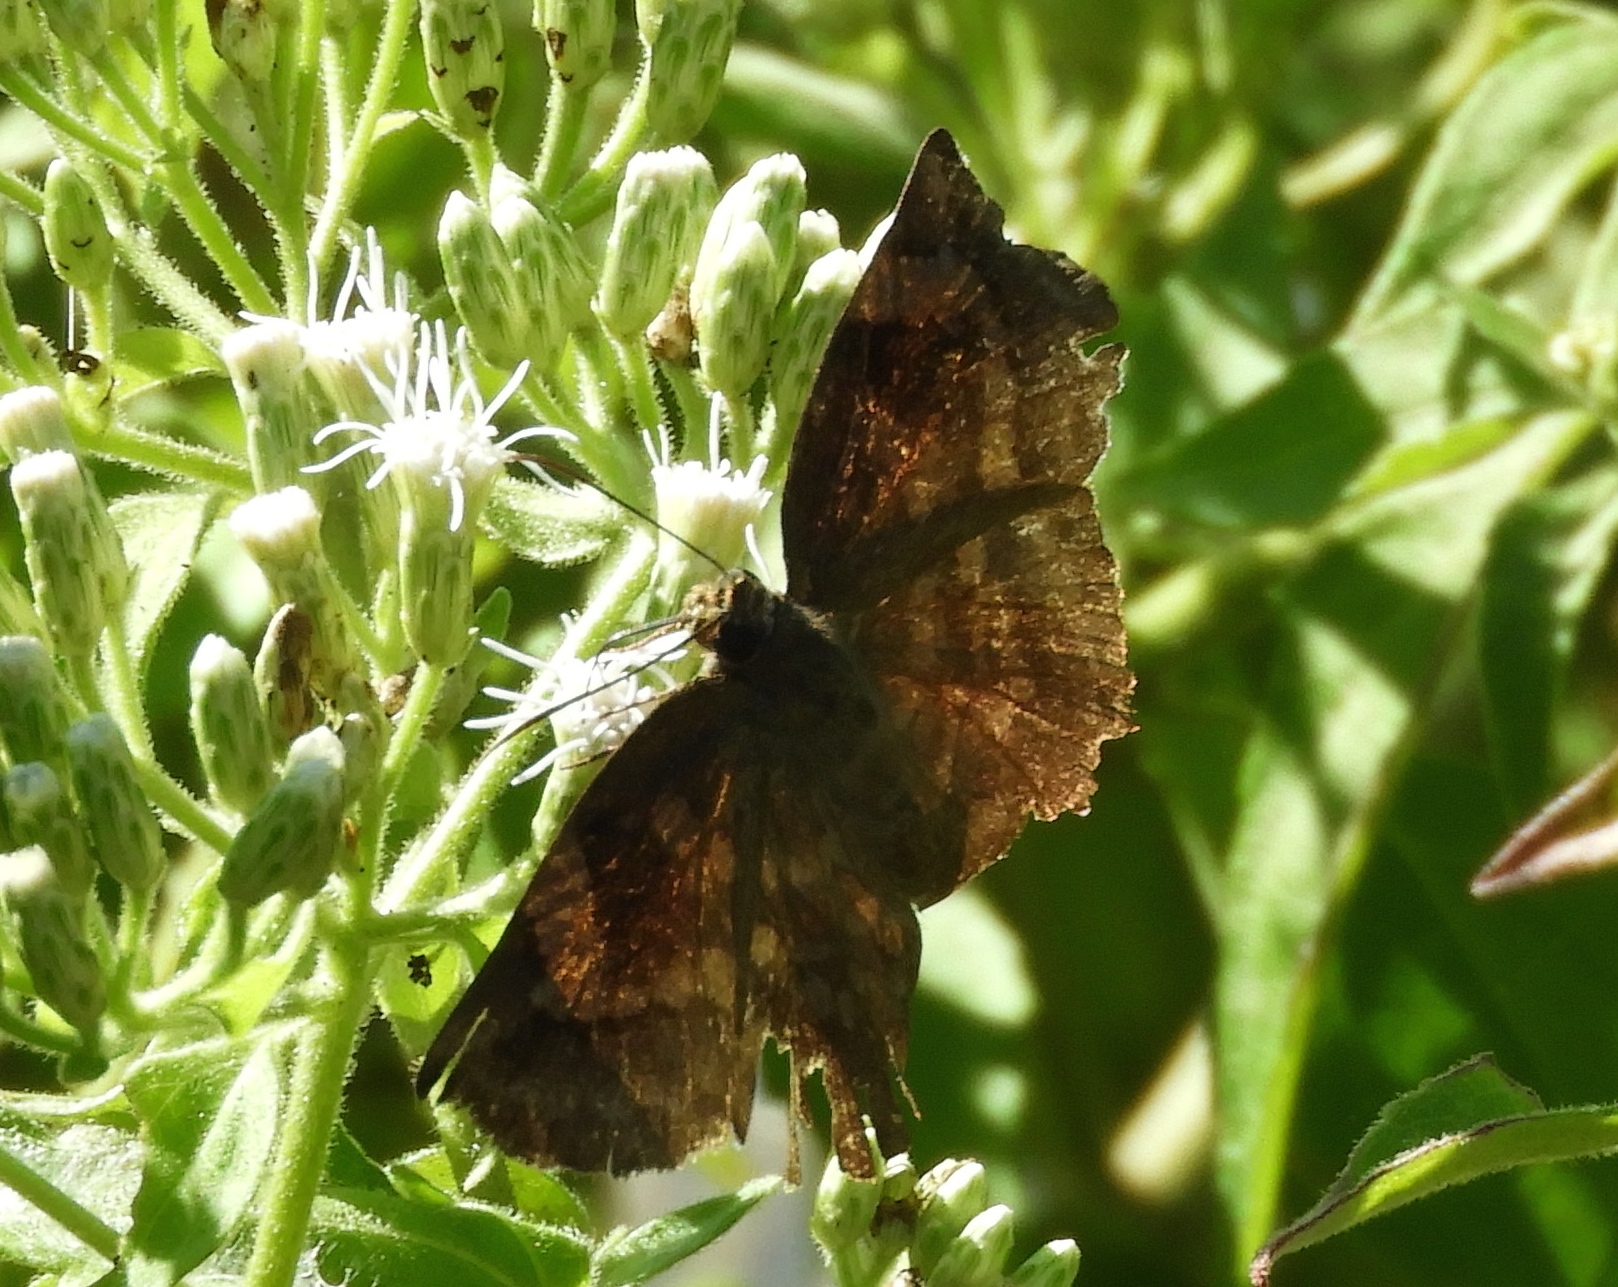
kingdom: Animalia
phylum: Arthropoda
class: Insecta
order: Lepidoptera
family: Hesperiidae
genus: Achlyodes
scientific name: Achlyodes
